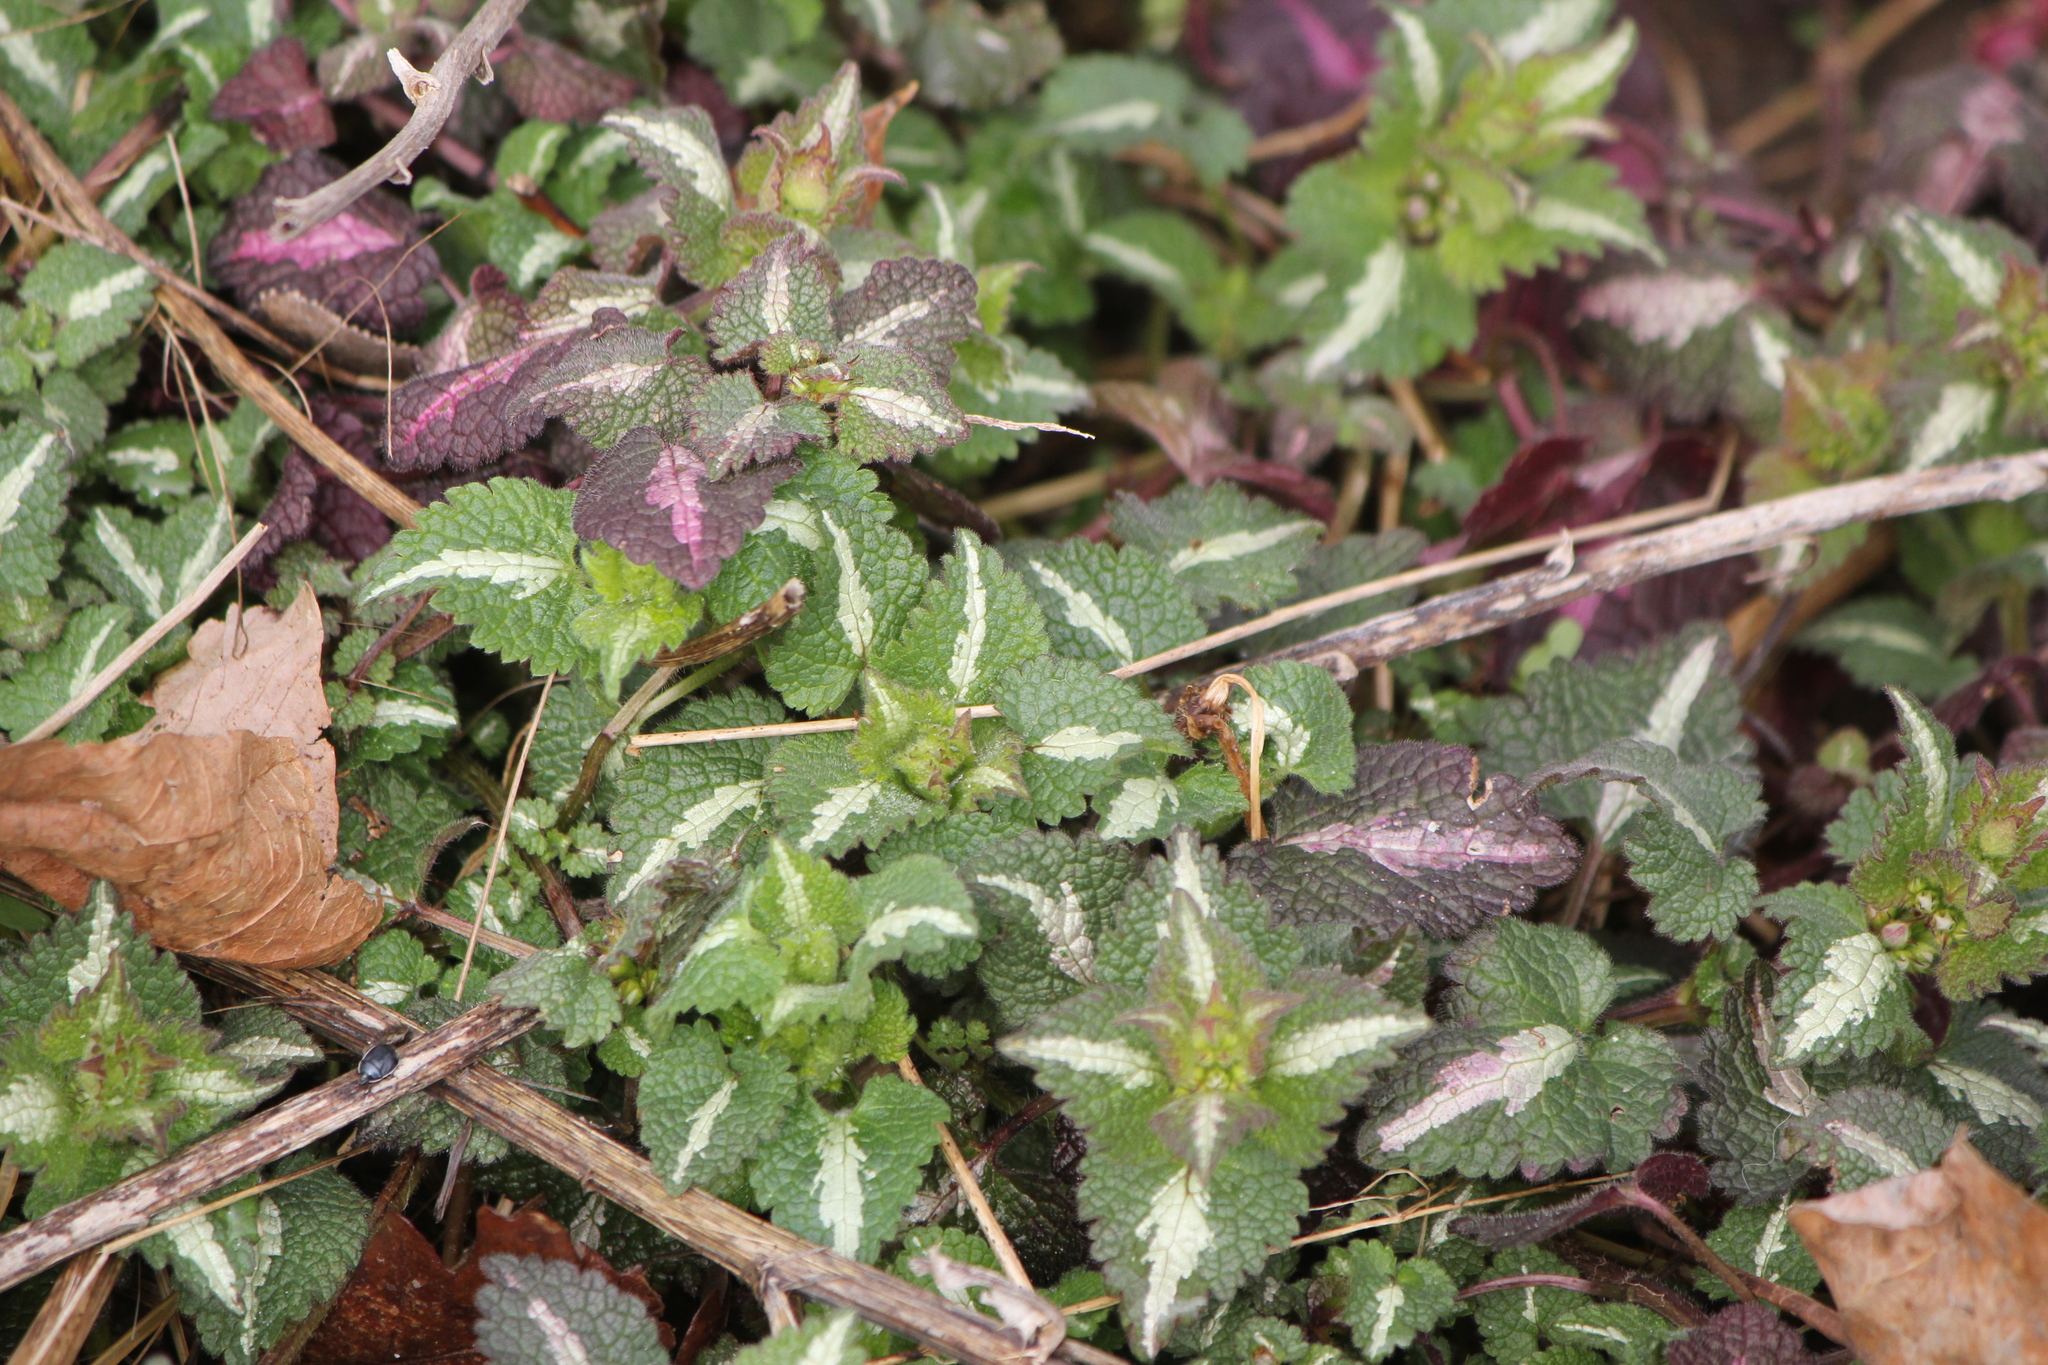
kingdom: Plantae
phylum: Tracheophyta
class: Magnoliopsida
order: Lamiales
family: Lamiaceae
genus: Lamium
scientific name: Lamium maculatum
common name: Spotted dead-nettle
